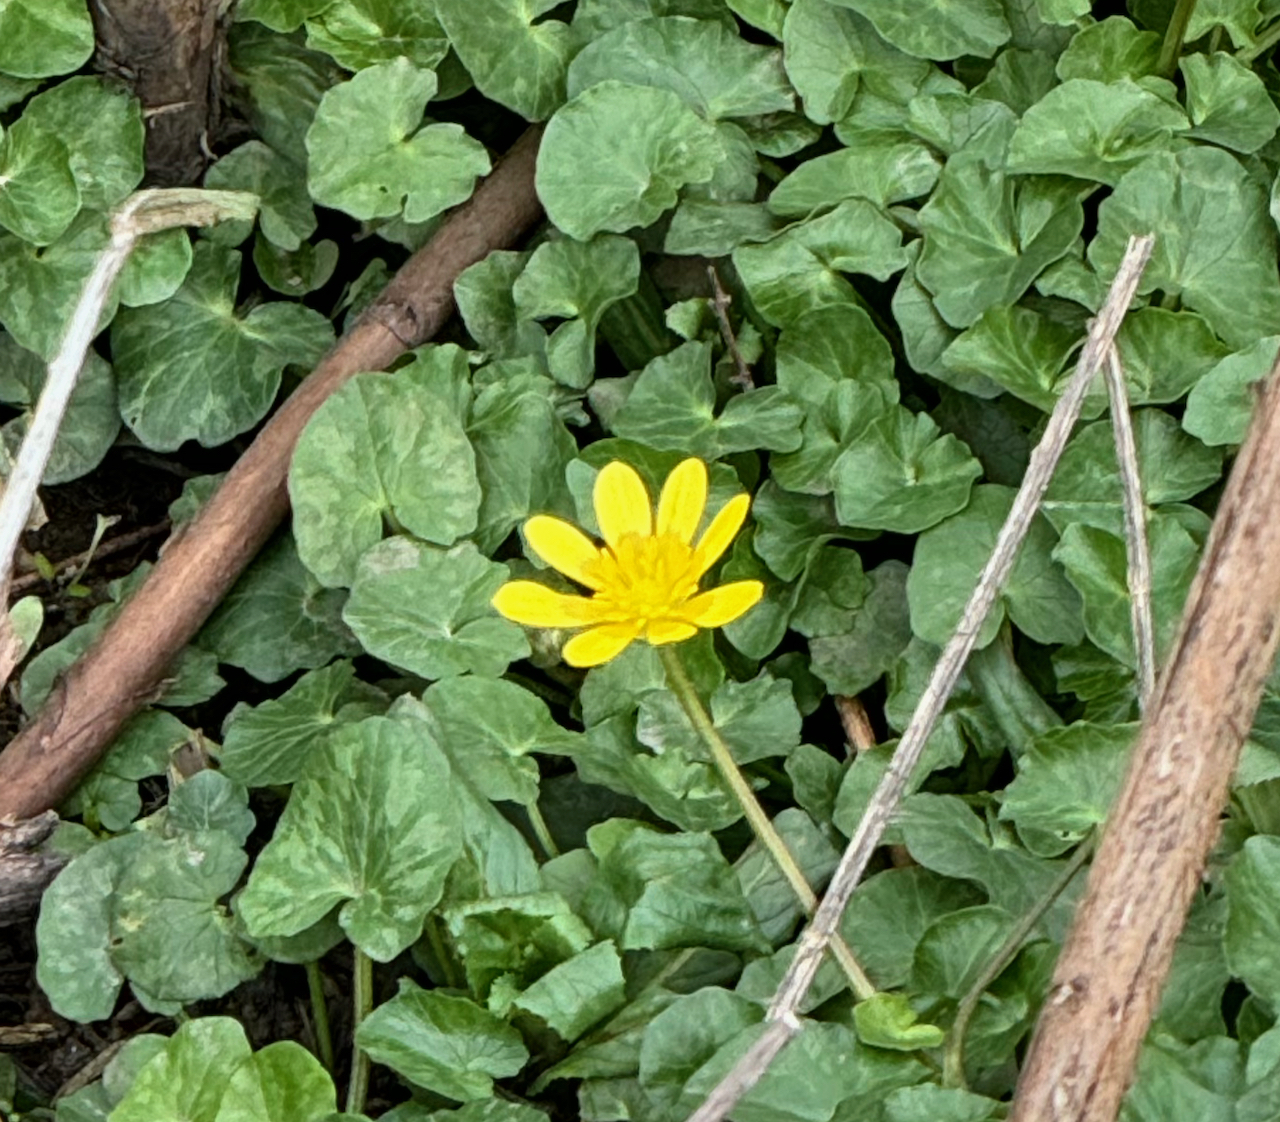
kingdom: Plantae
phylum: Tracheophyta
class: Magnoliopsida
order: Ranunculales
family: Ranunculaceae
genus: Ficaria
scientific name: Ficaria verna
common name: Lesser celandine
